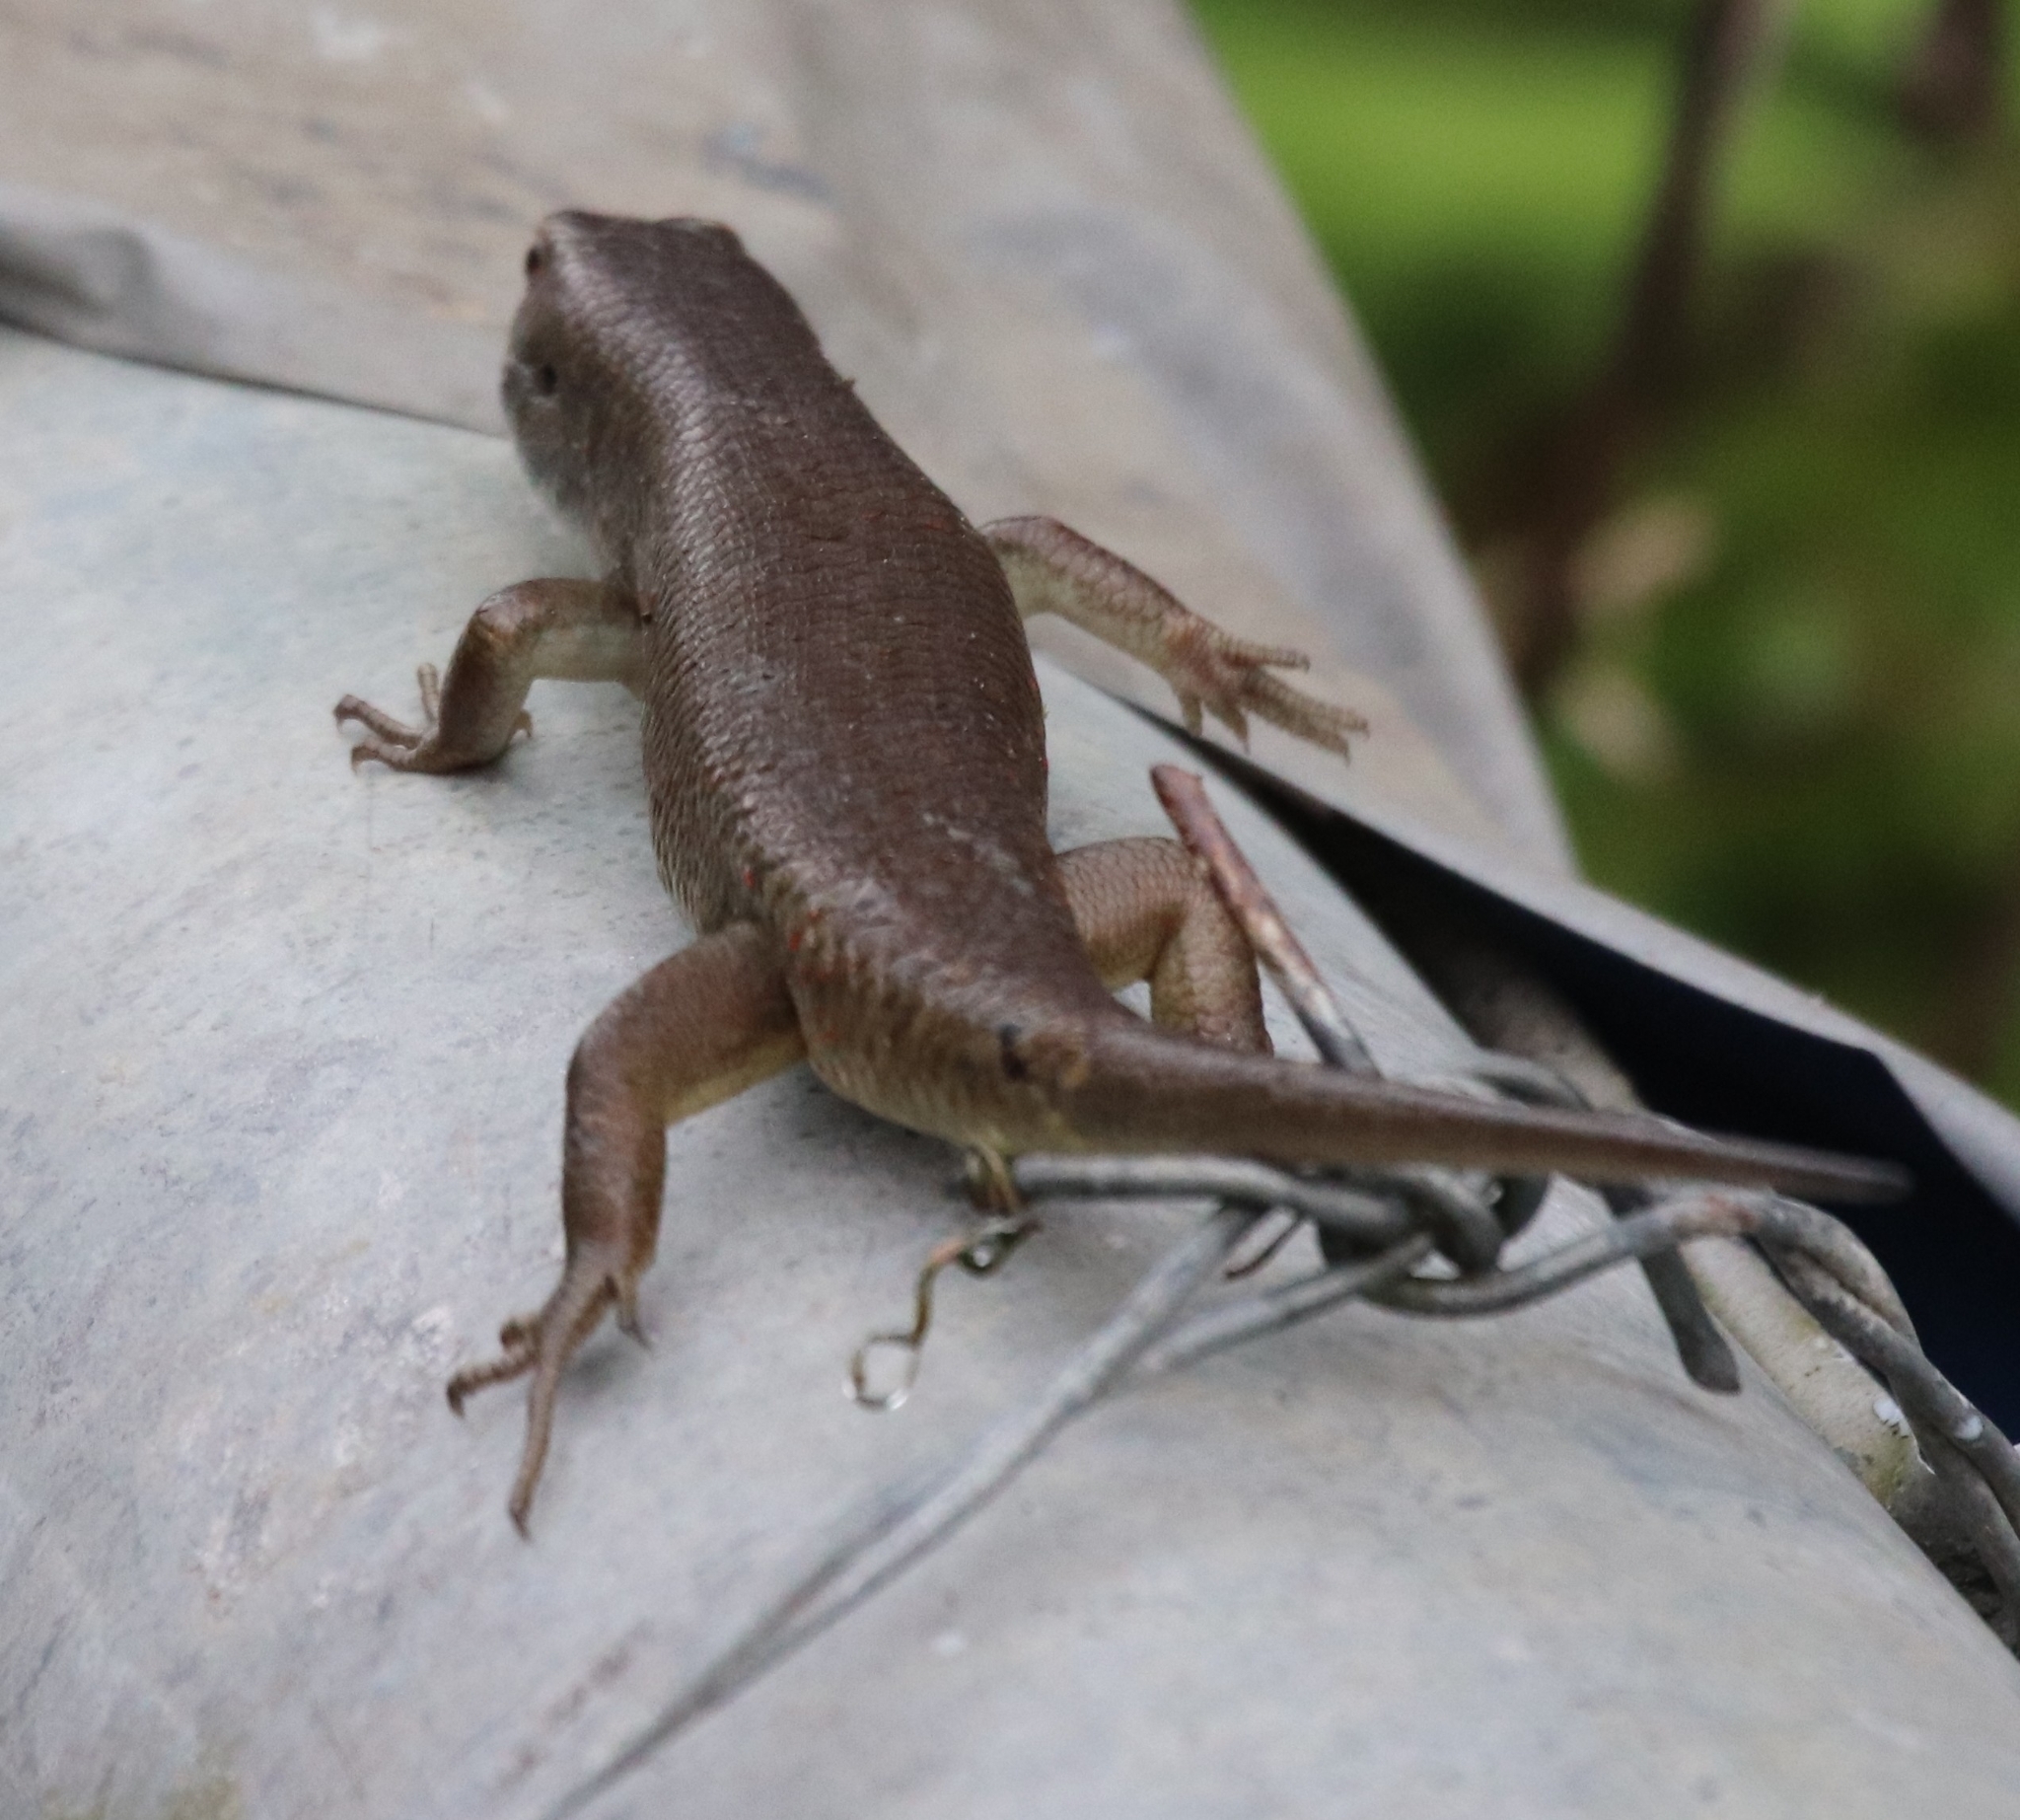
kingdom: Animalia
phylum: Chordata
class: Squamata
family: Scincidae
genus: Eutropis
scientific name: Eutropis multifasciata
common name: Common mabuya
